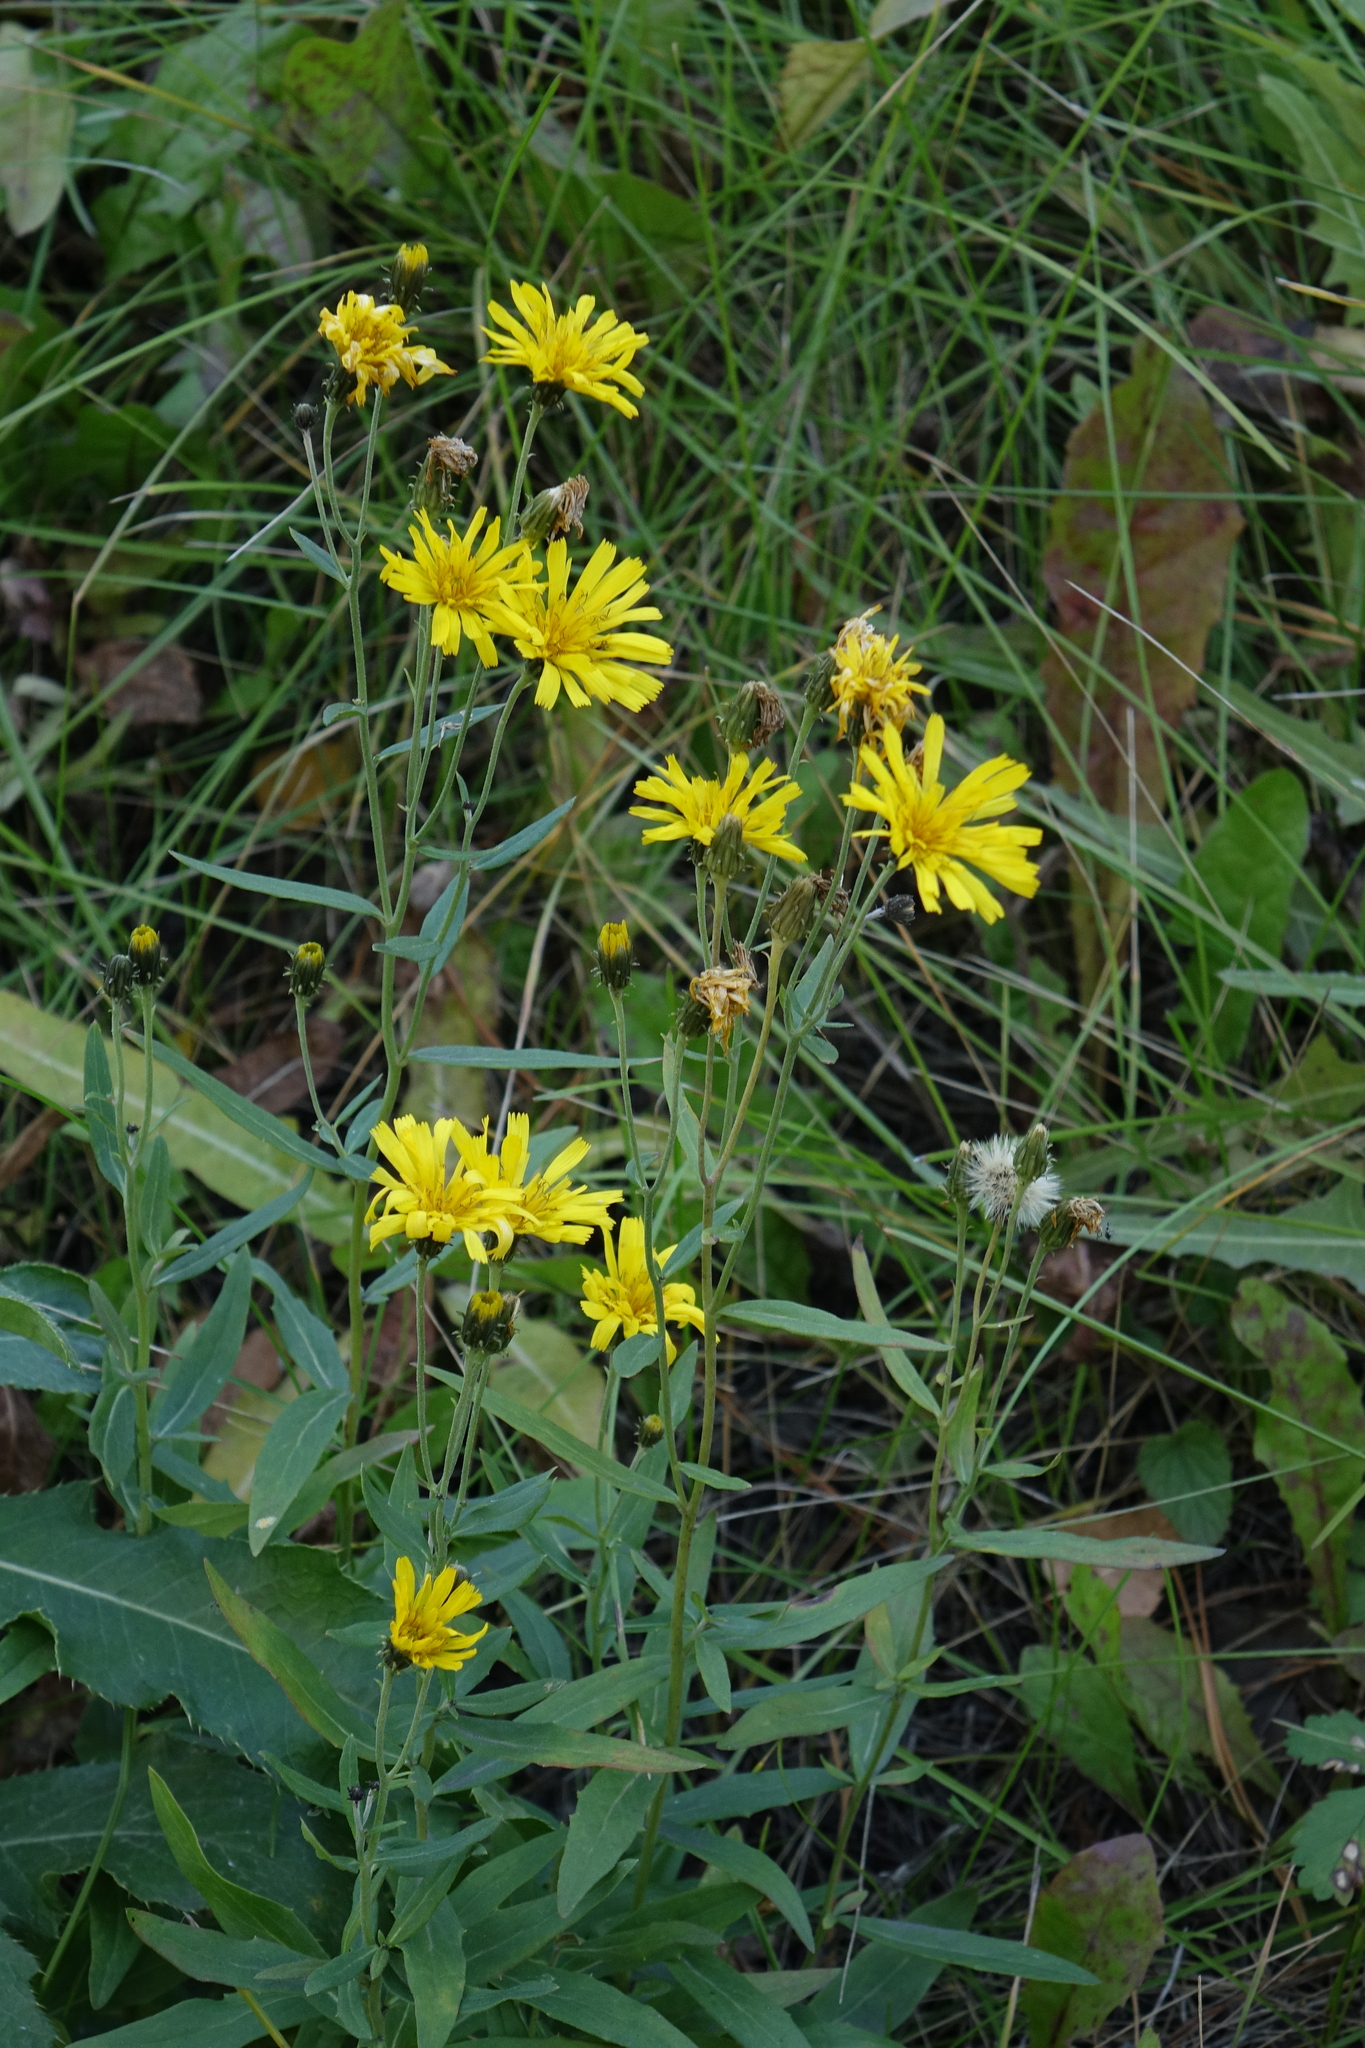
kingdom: Plantae
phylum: Tracheophyta
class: Magnoliopsida
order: Asterales
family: Asteraceae
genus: Hieracium
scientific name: Hieracium umbellatum
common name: Northern hawkweed
